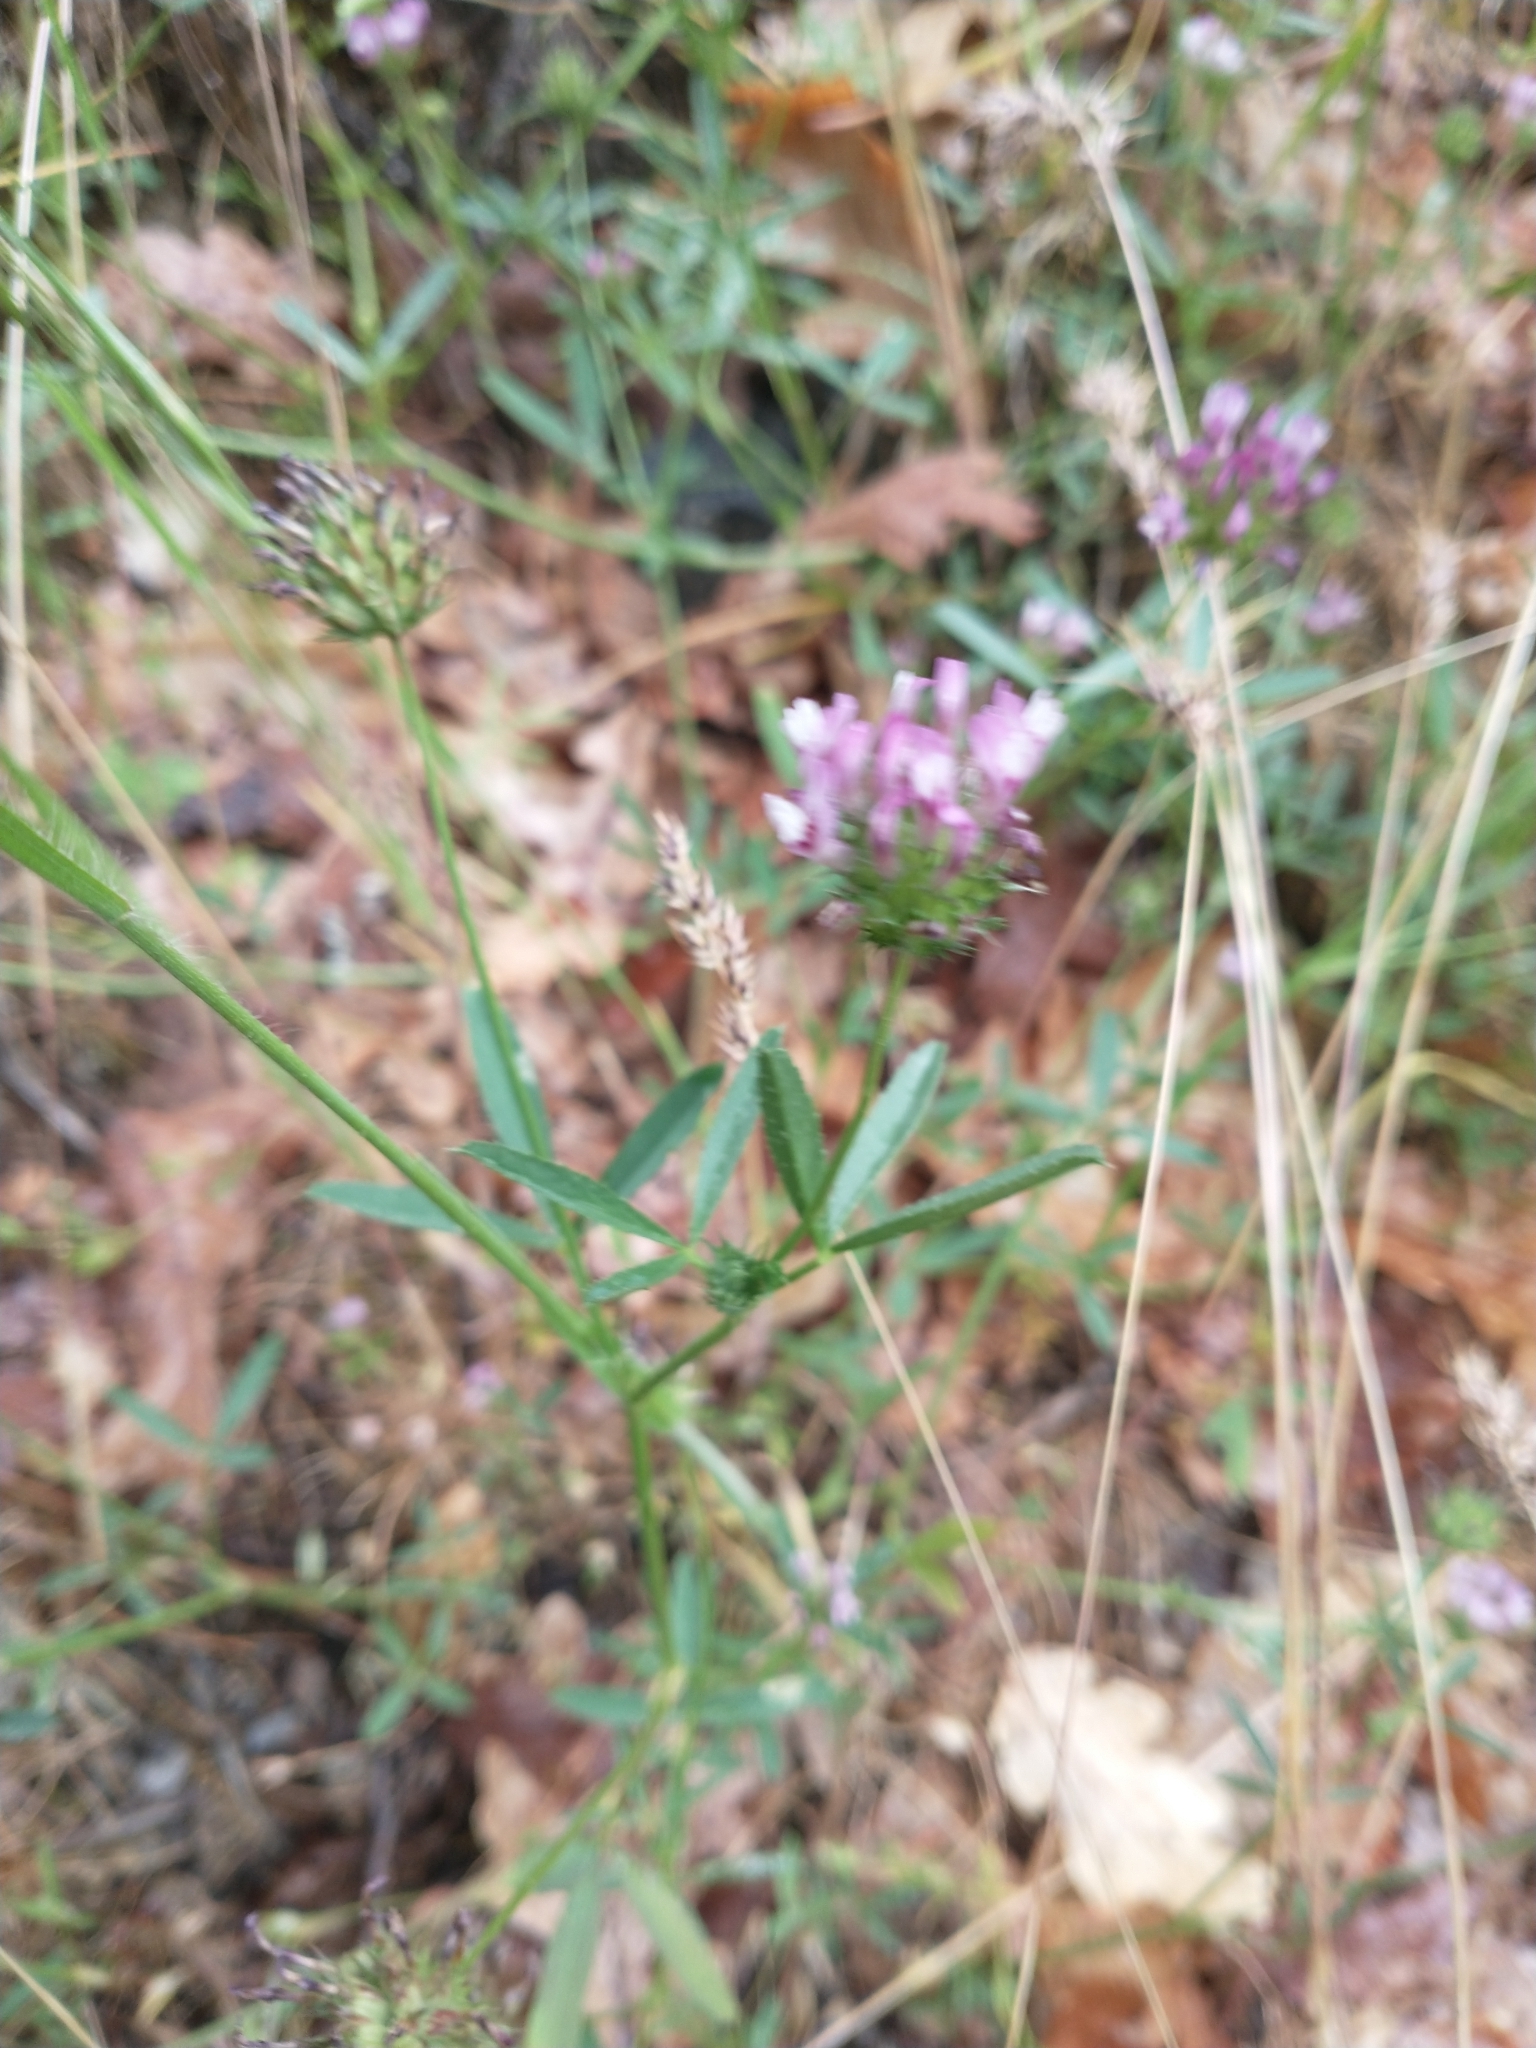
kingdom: Plantae
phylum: Tracheophyta
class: Magnoliopsida
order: Fabales
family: Fabaceae
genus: Trifolium
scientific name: Trifolium willdenovii
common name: Tomcat clover
